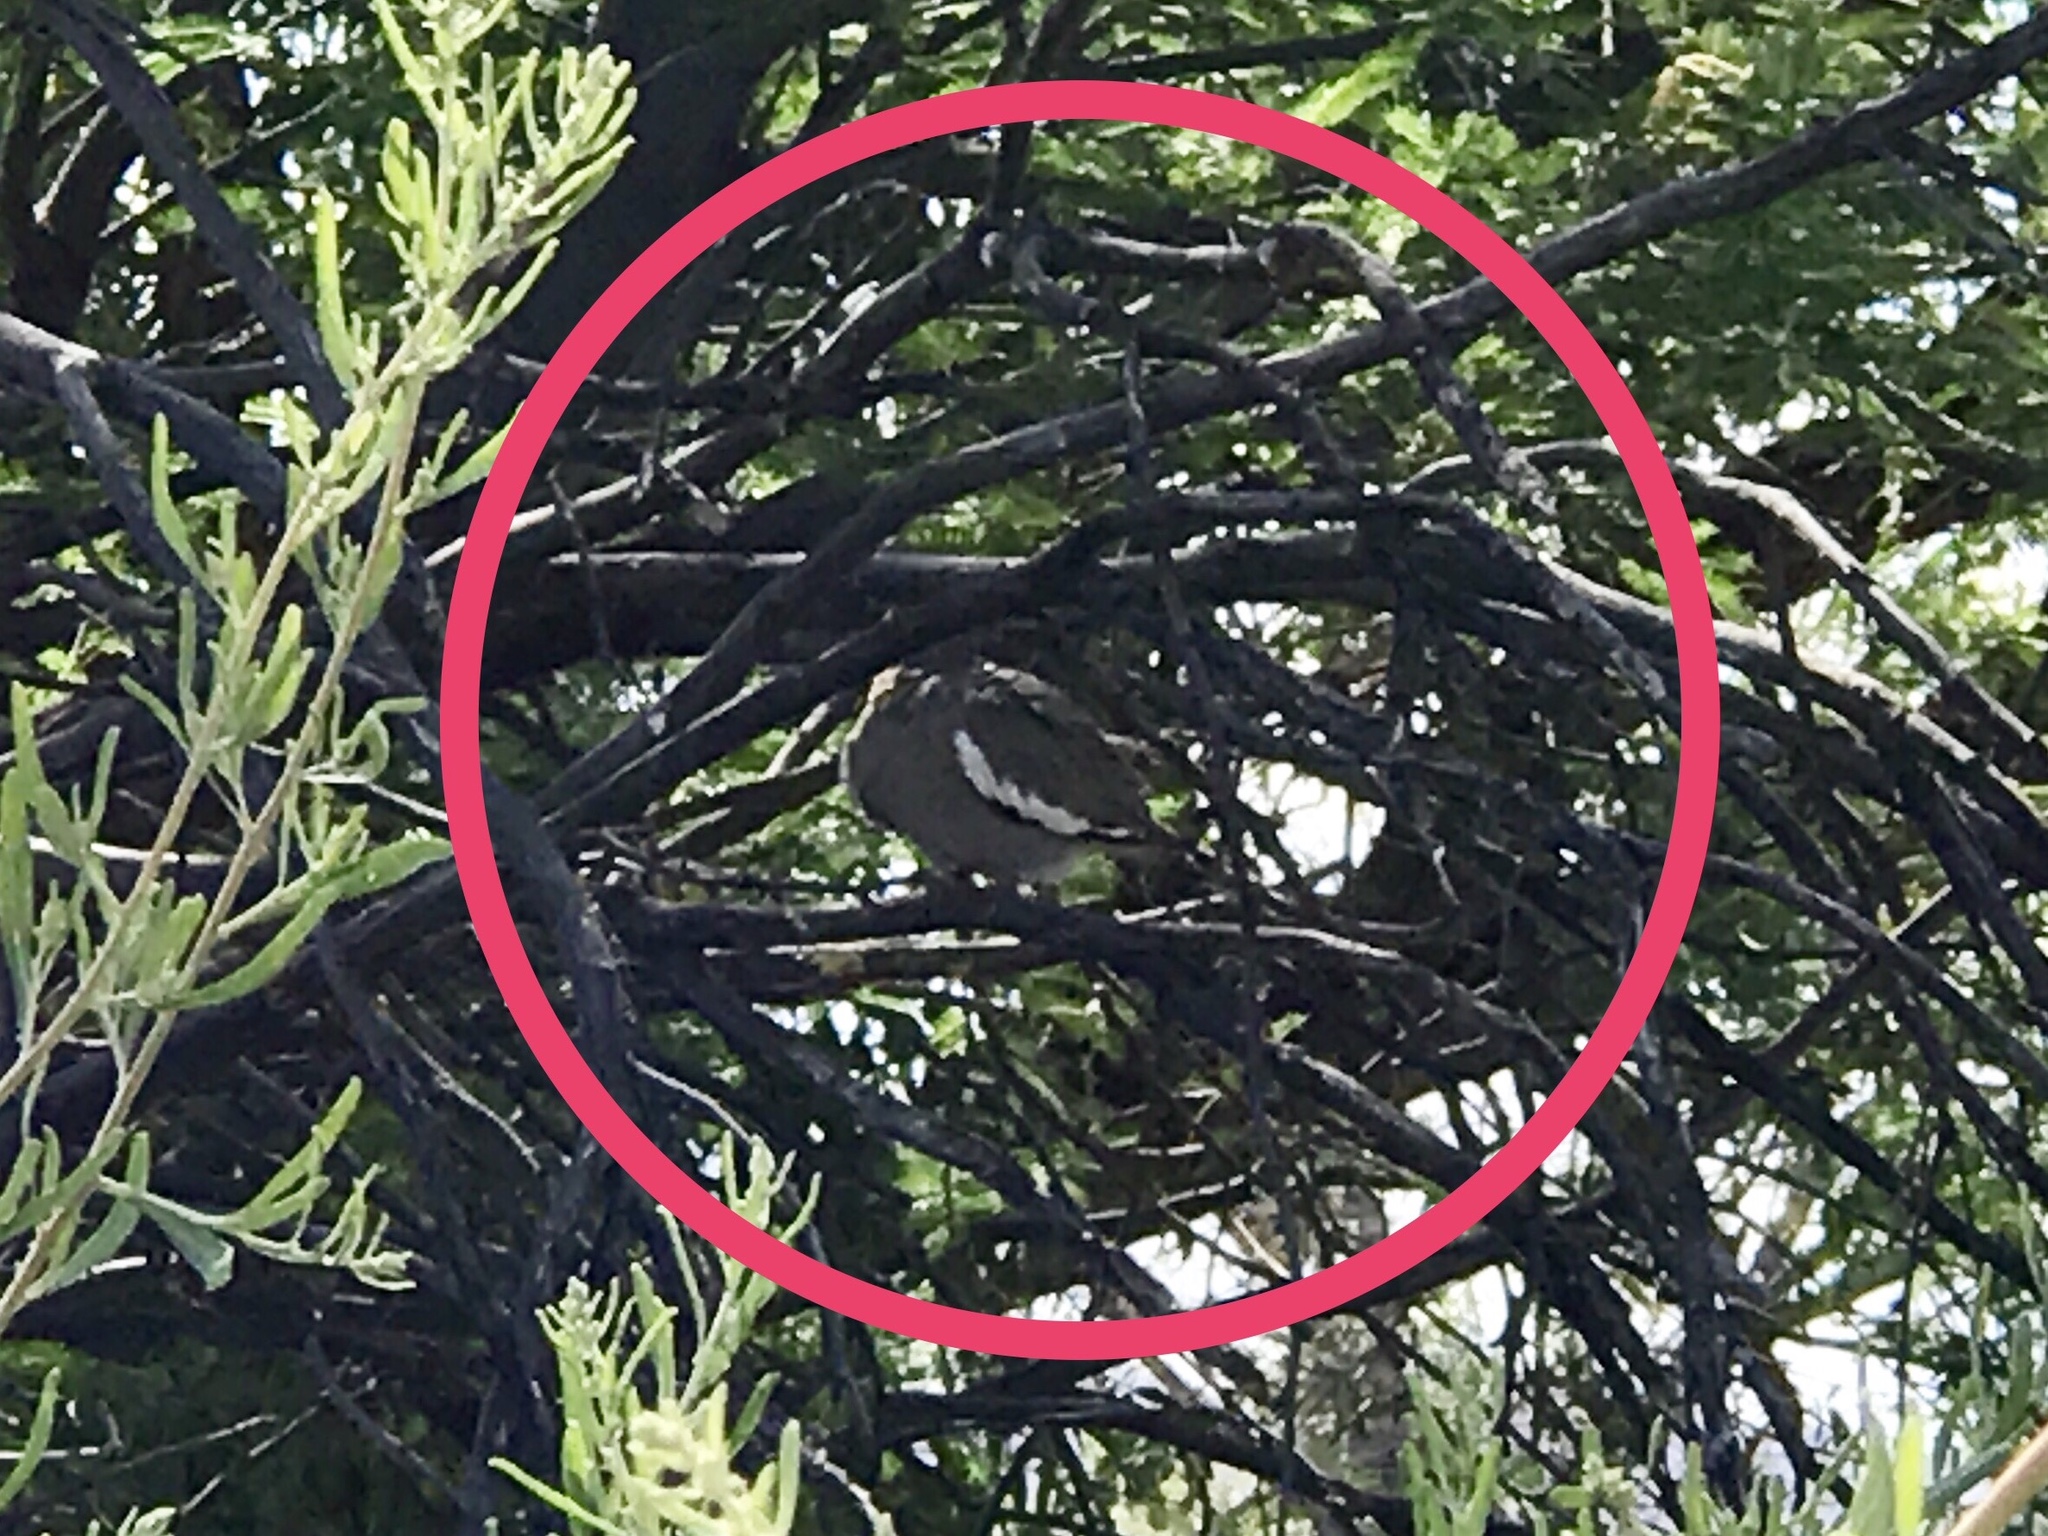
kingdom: Animalia
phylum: Chordata
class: Aves
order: Columbiformes
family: Columbidae
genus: Zenaida
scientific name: Zenaida asiatica
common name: White-winged dove
